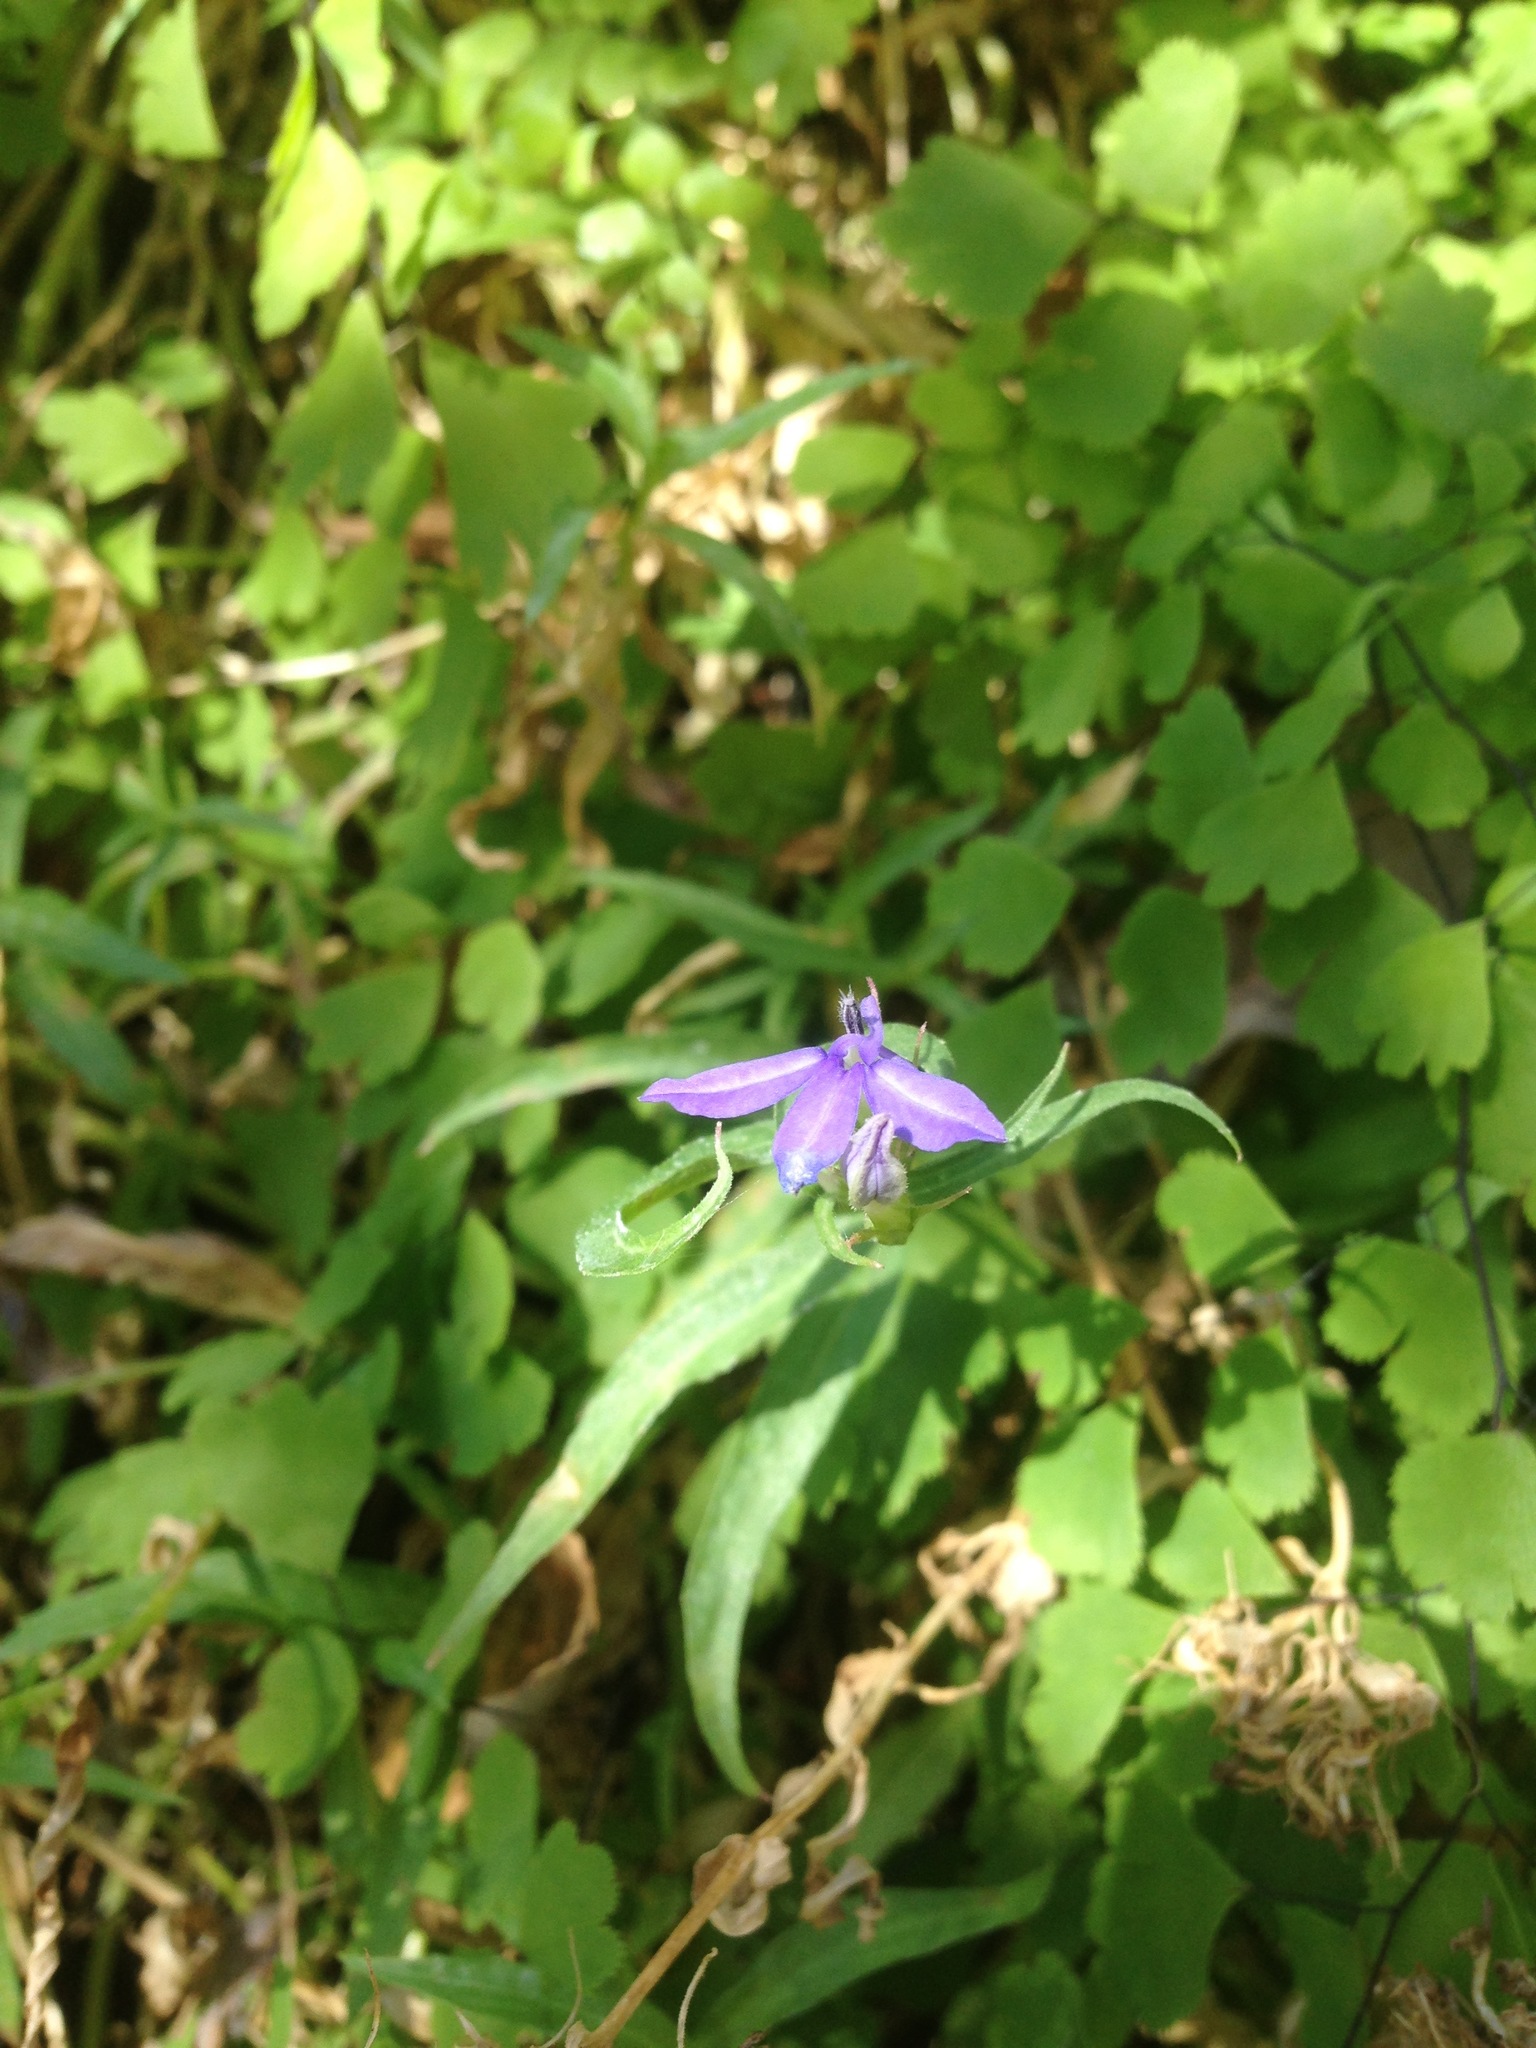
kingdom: Plantae
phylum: Tracheophyta
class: Magnoliopsida
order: Asterales
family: Campanulaceae
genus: Palmerella
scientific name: Palmerella debilis
